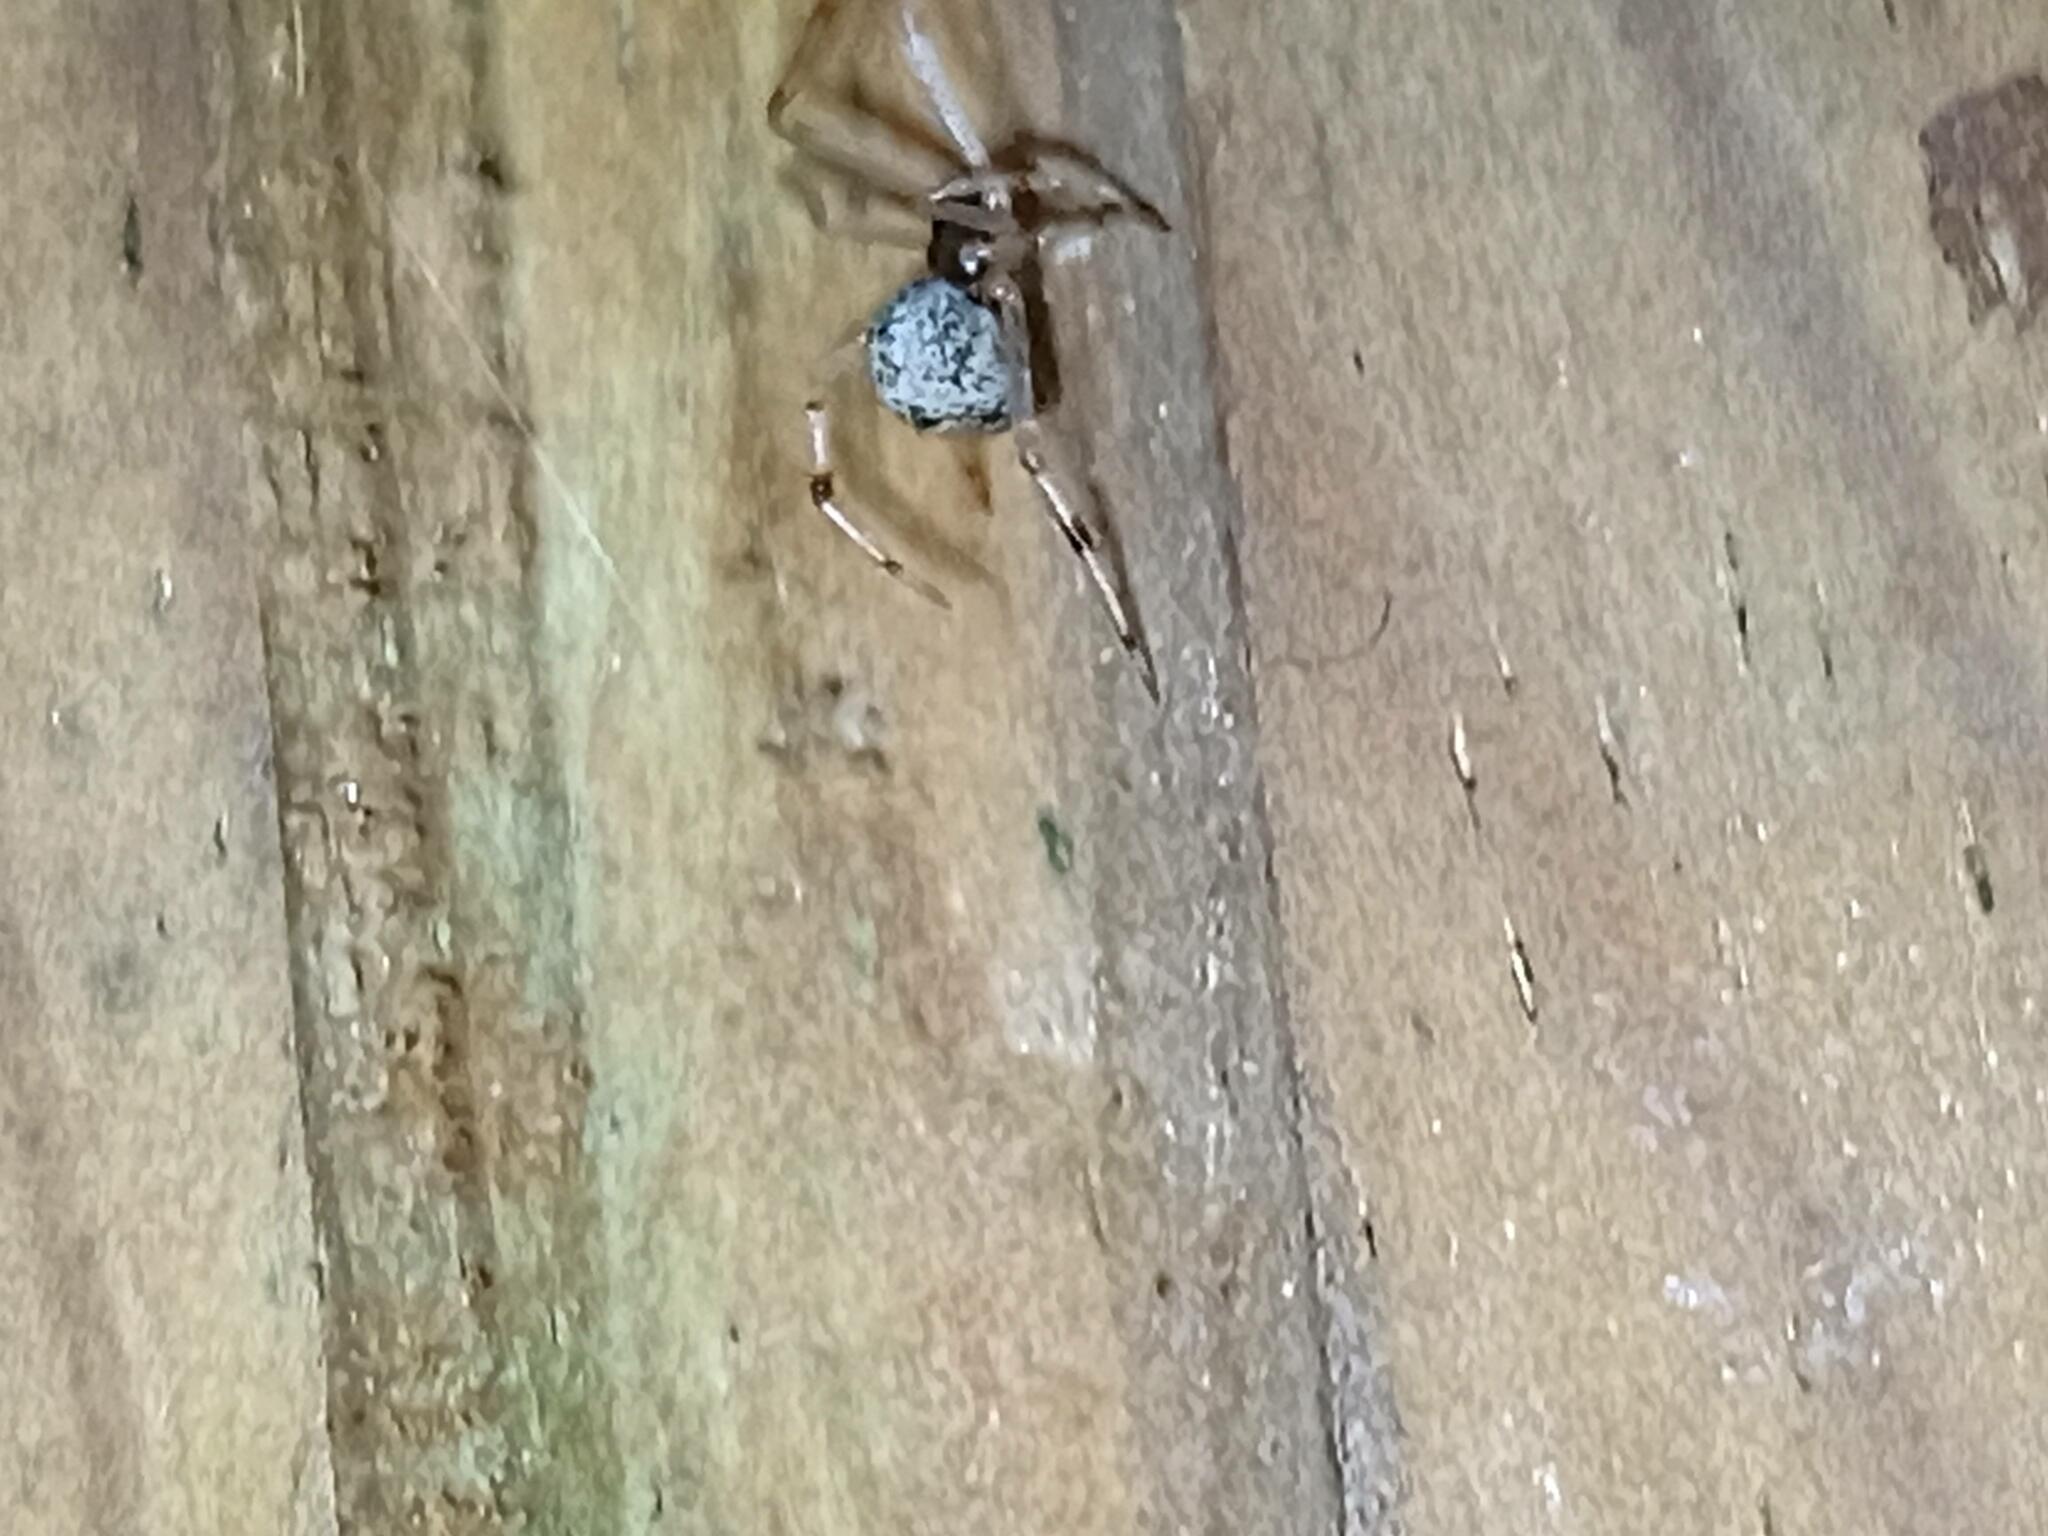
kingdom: Animalia
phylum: Arthropoda
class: Arachnida
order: Araneae
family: Theridiidae
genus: Parasteatoda
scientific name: Parasteatoda tepidariorum
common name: Common house spider
